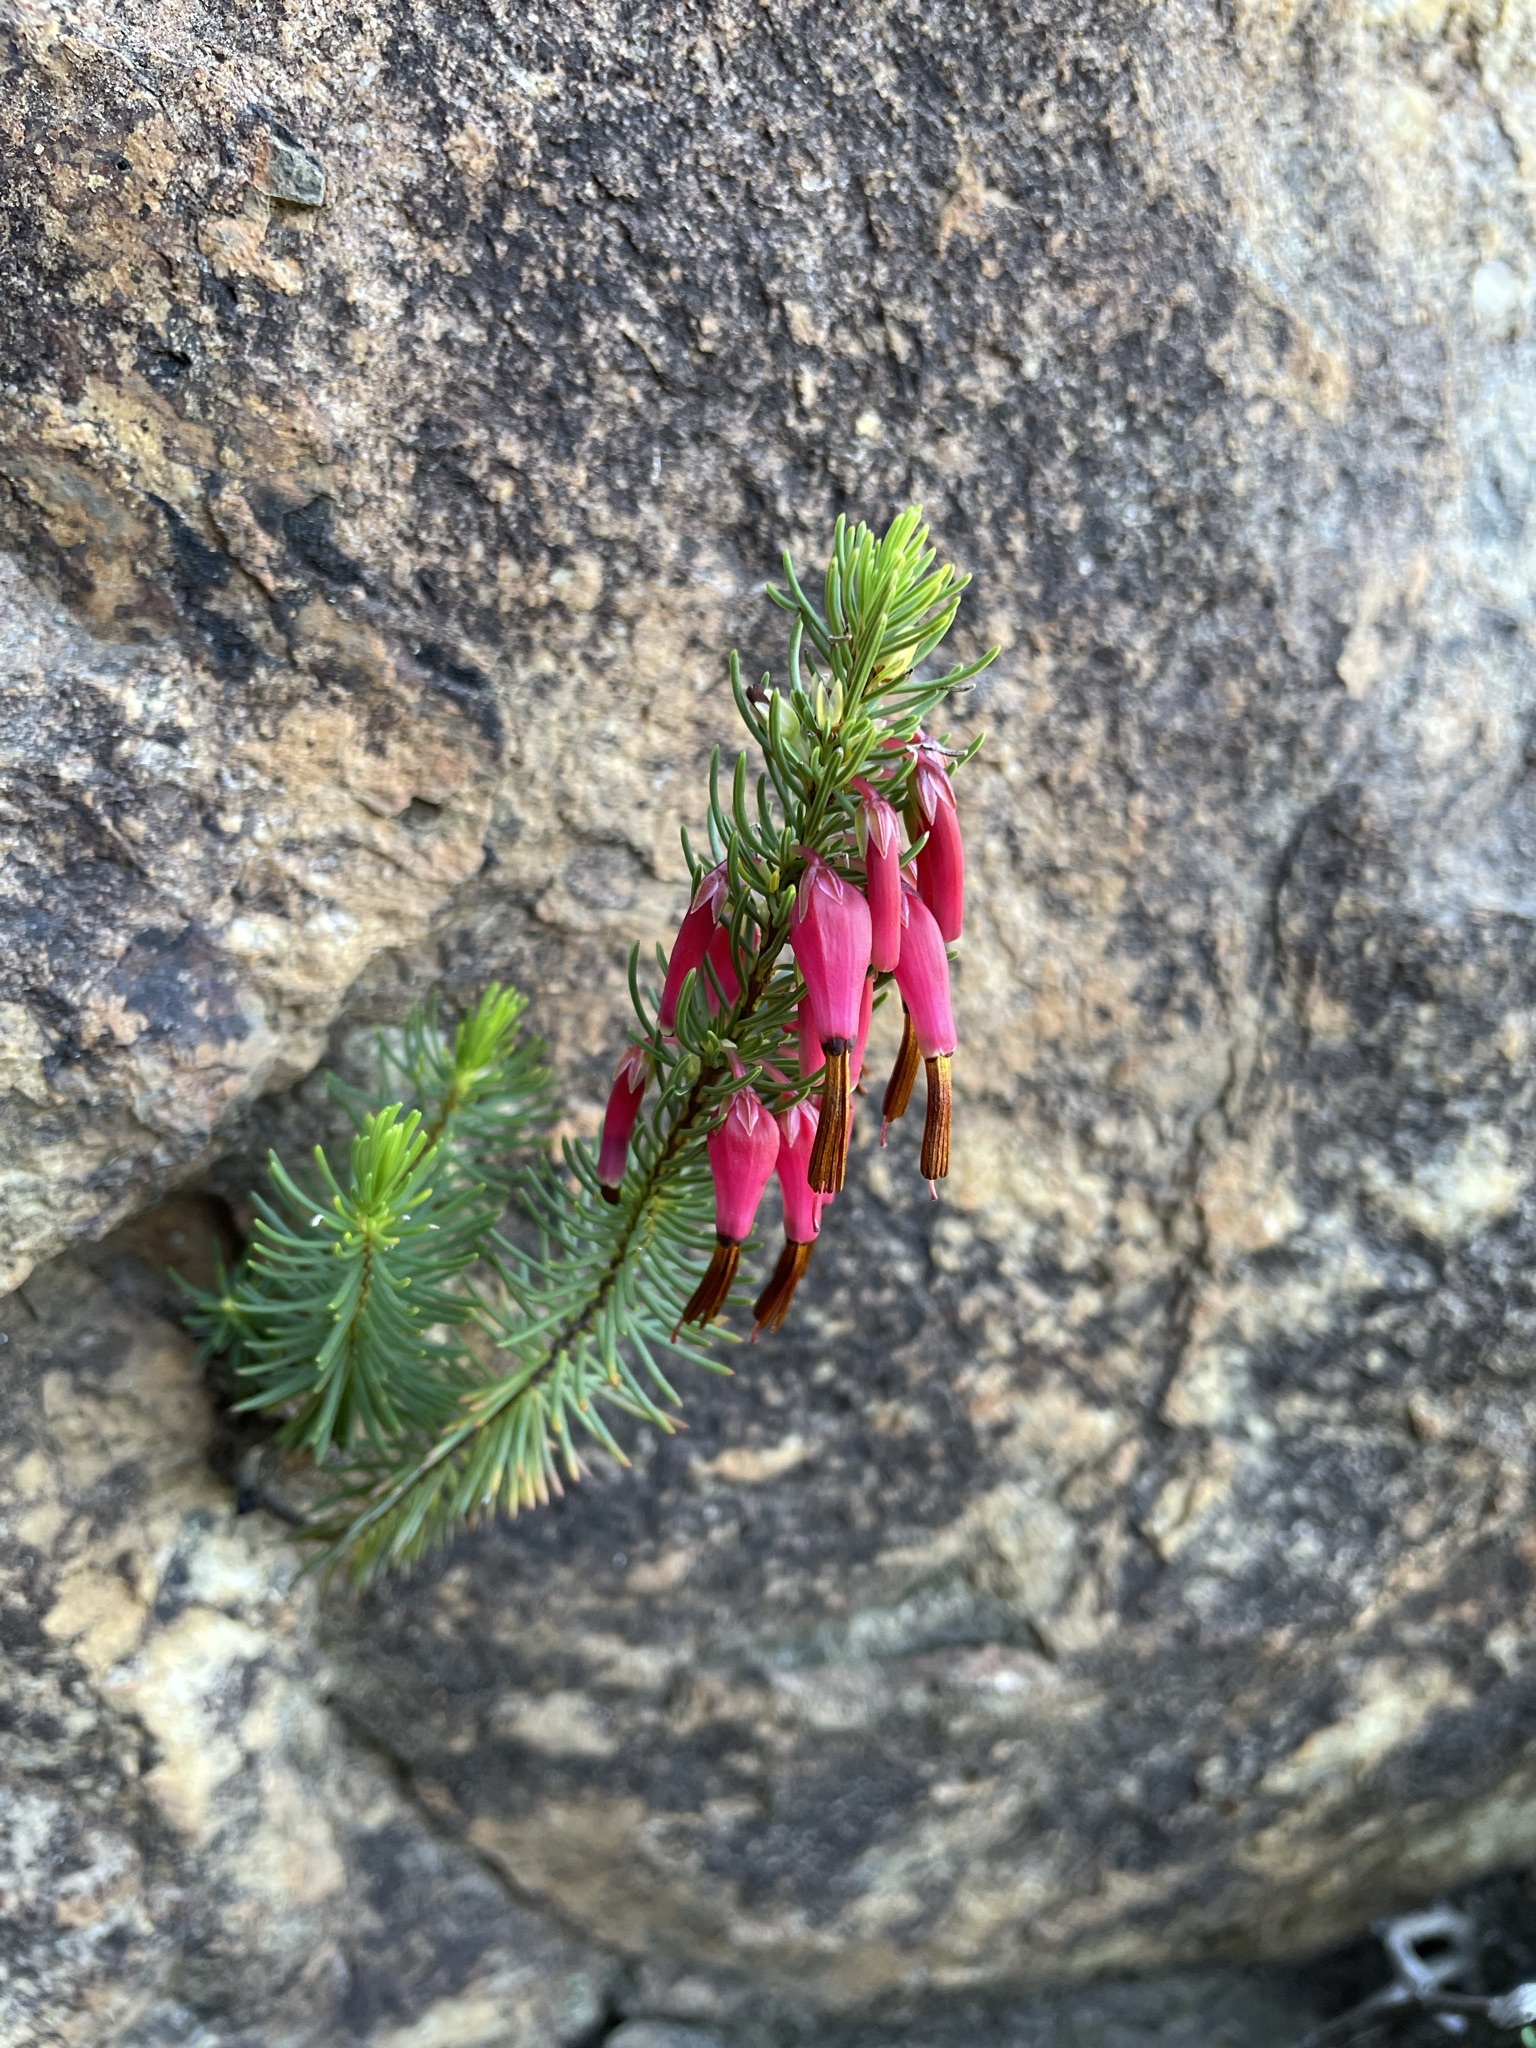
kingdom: Plantae
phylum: Tracheophyta
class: Magnoliopsida
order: Ericales
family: Ericaceae
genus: Erica
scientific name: Erica plukenetii
